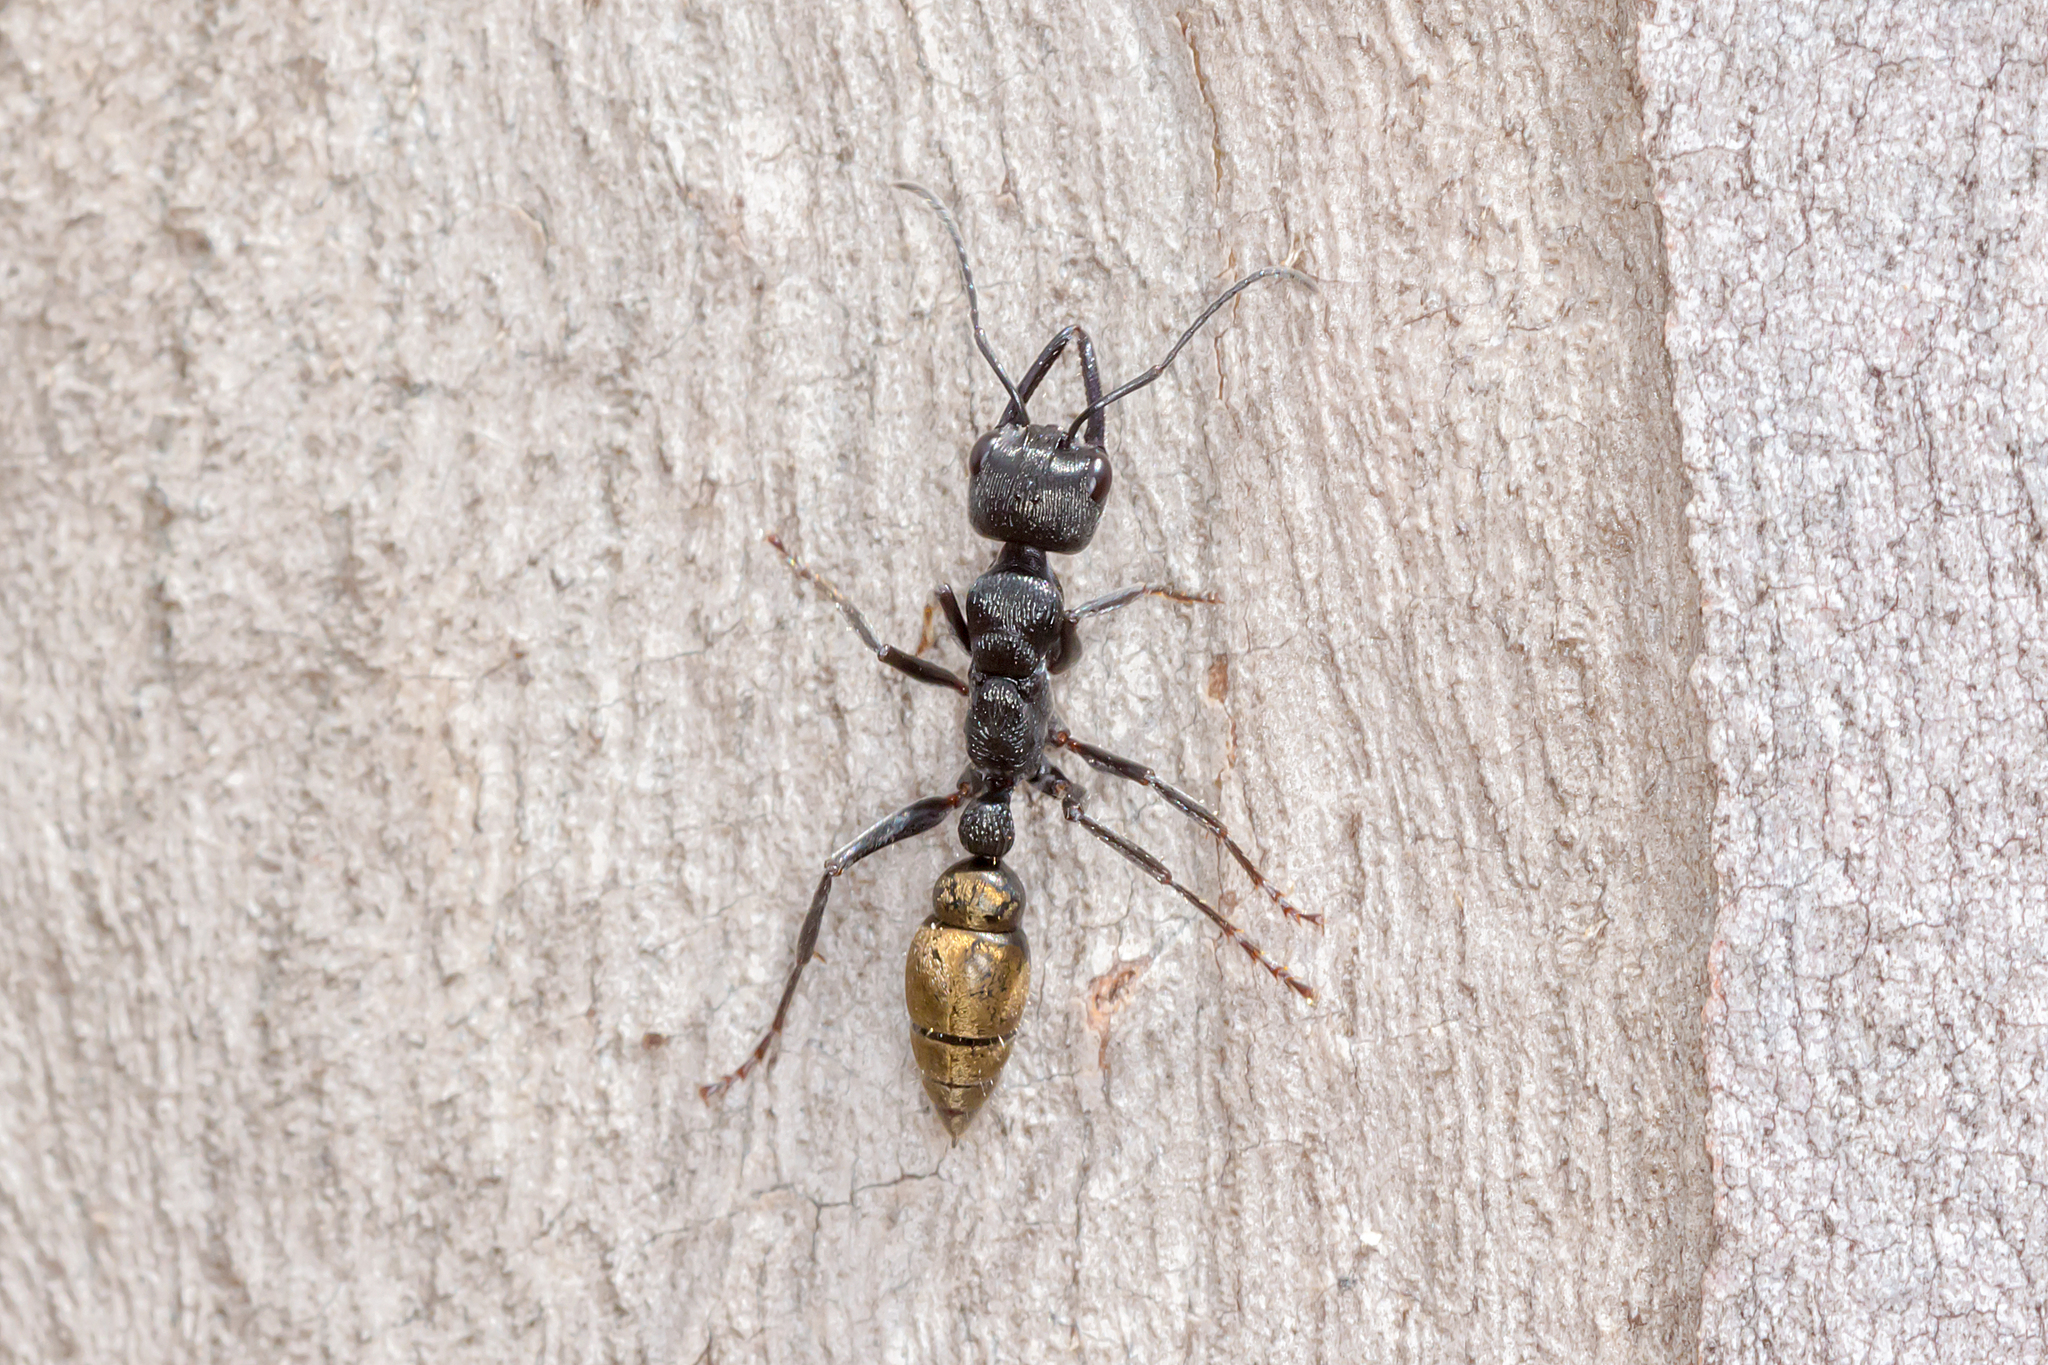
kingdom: Animalia
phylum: Arthropoda
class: Insecta
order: Hymenoptera
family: Formicidae
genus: Myrmecia
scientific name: Myrmecia piliventris
